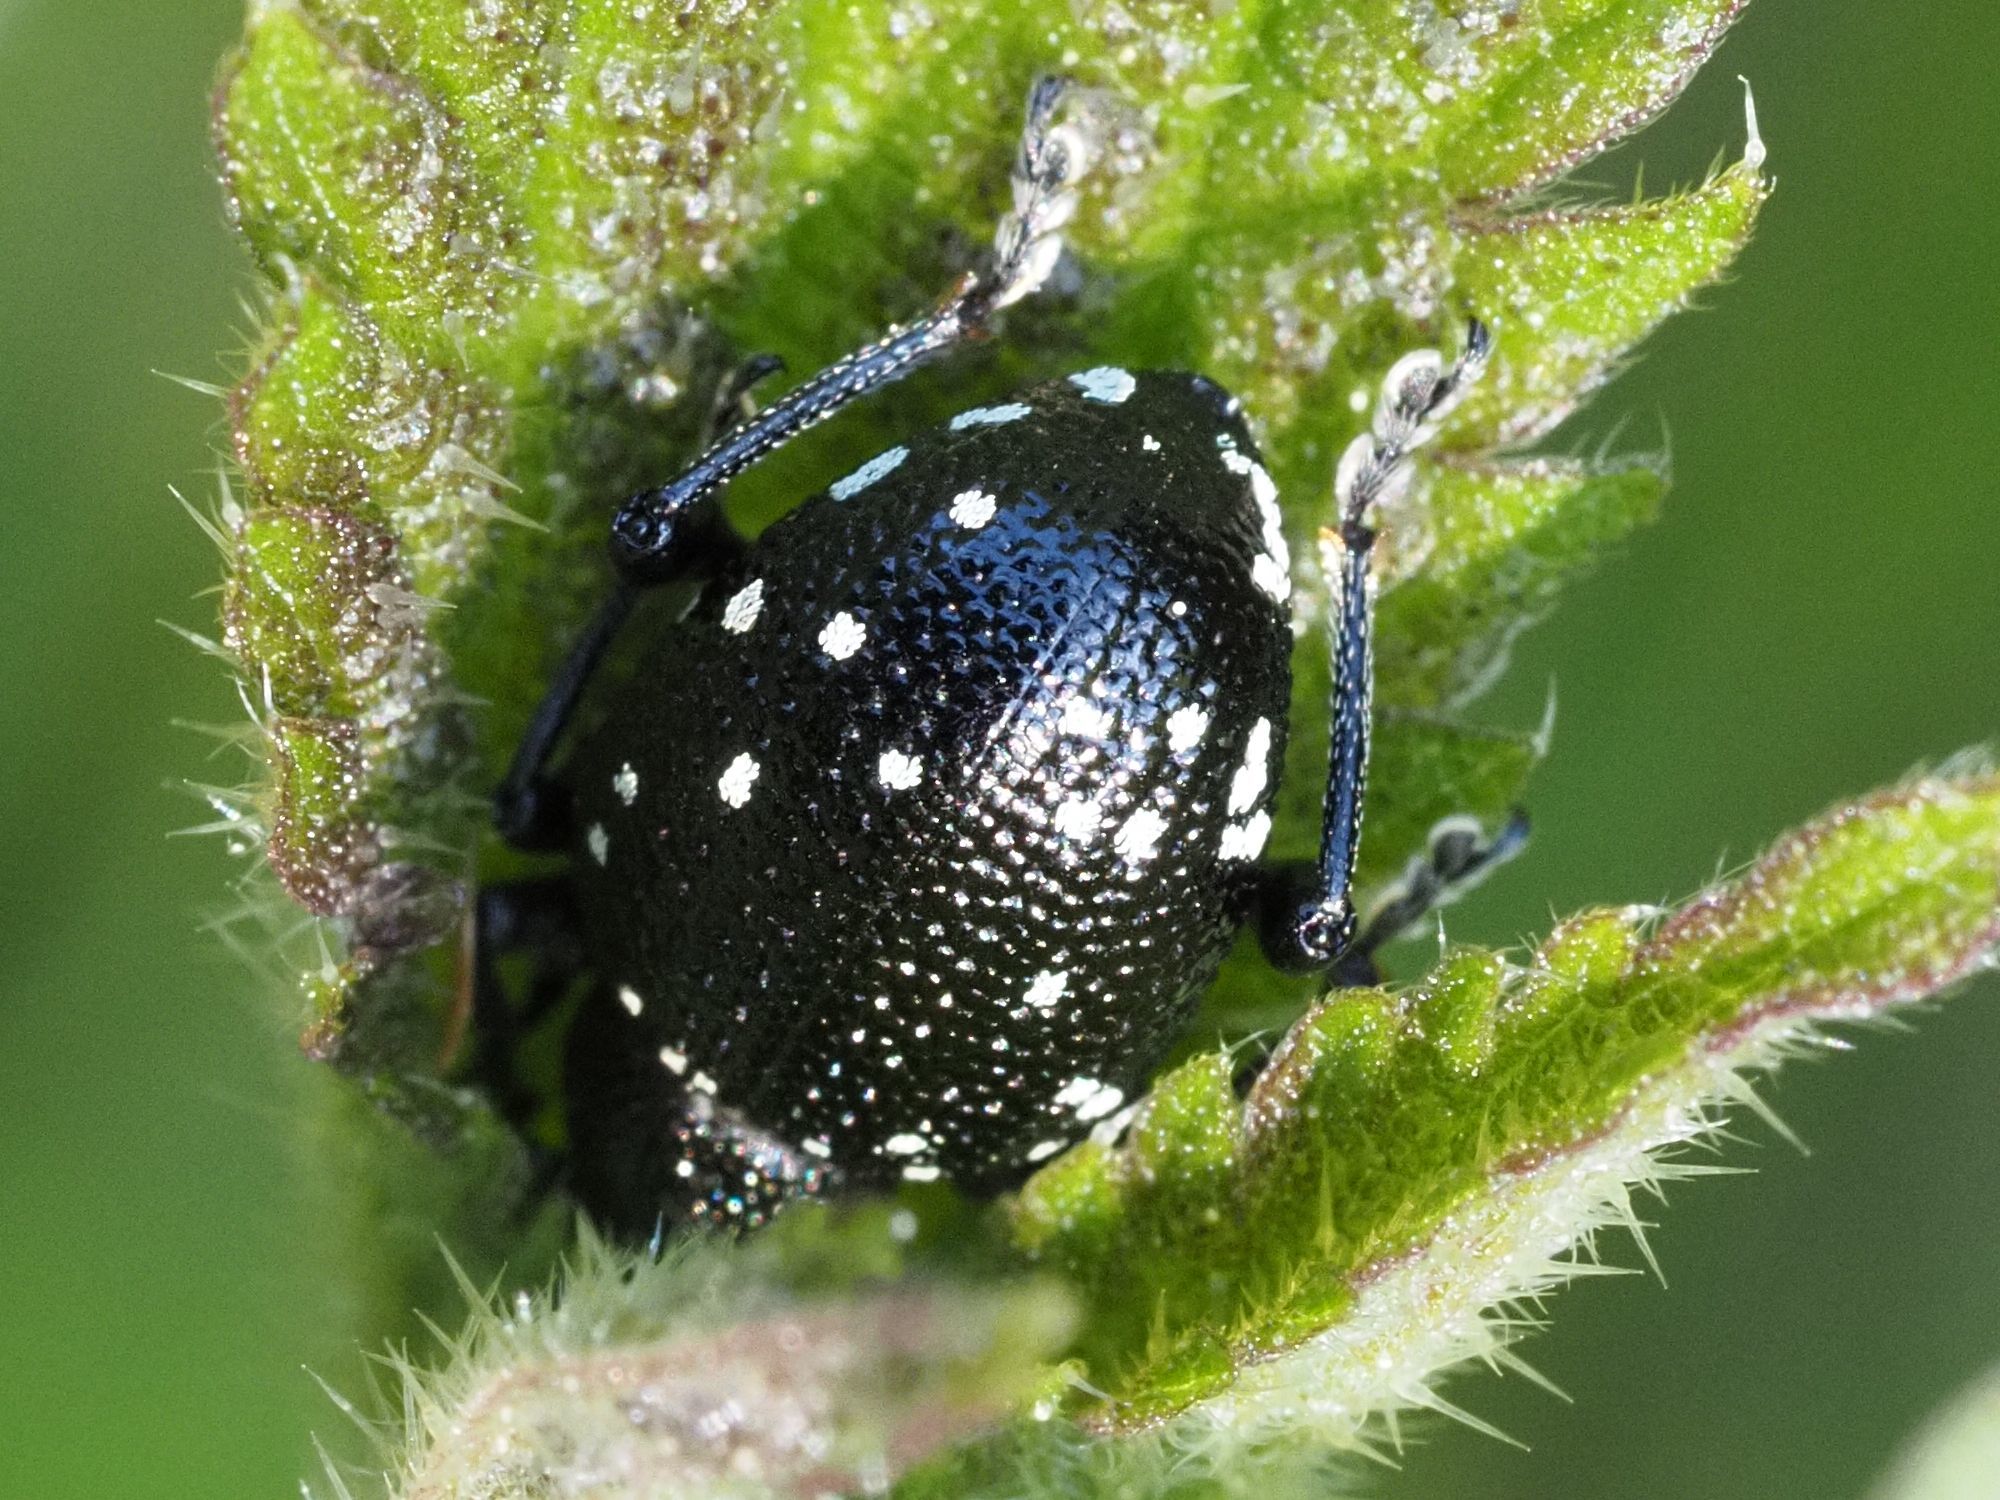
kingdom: Animalia
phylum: Arthropoda
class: Insecta
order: Coleoptera
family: Curculionidae
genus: Otiorhynchus
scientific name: Otiorhynchus gemmatus
